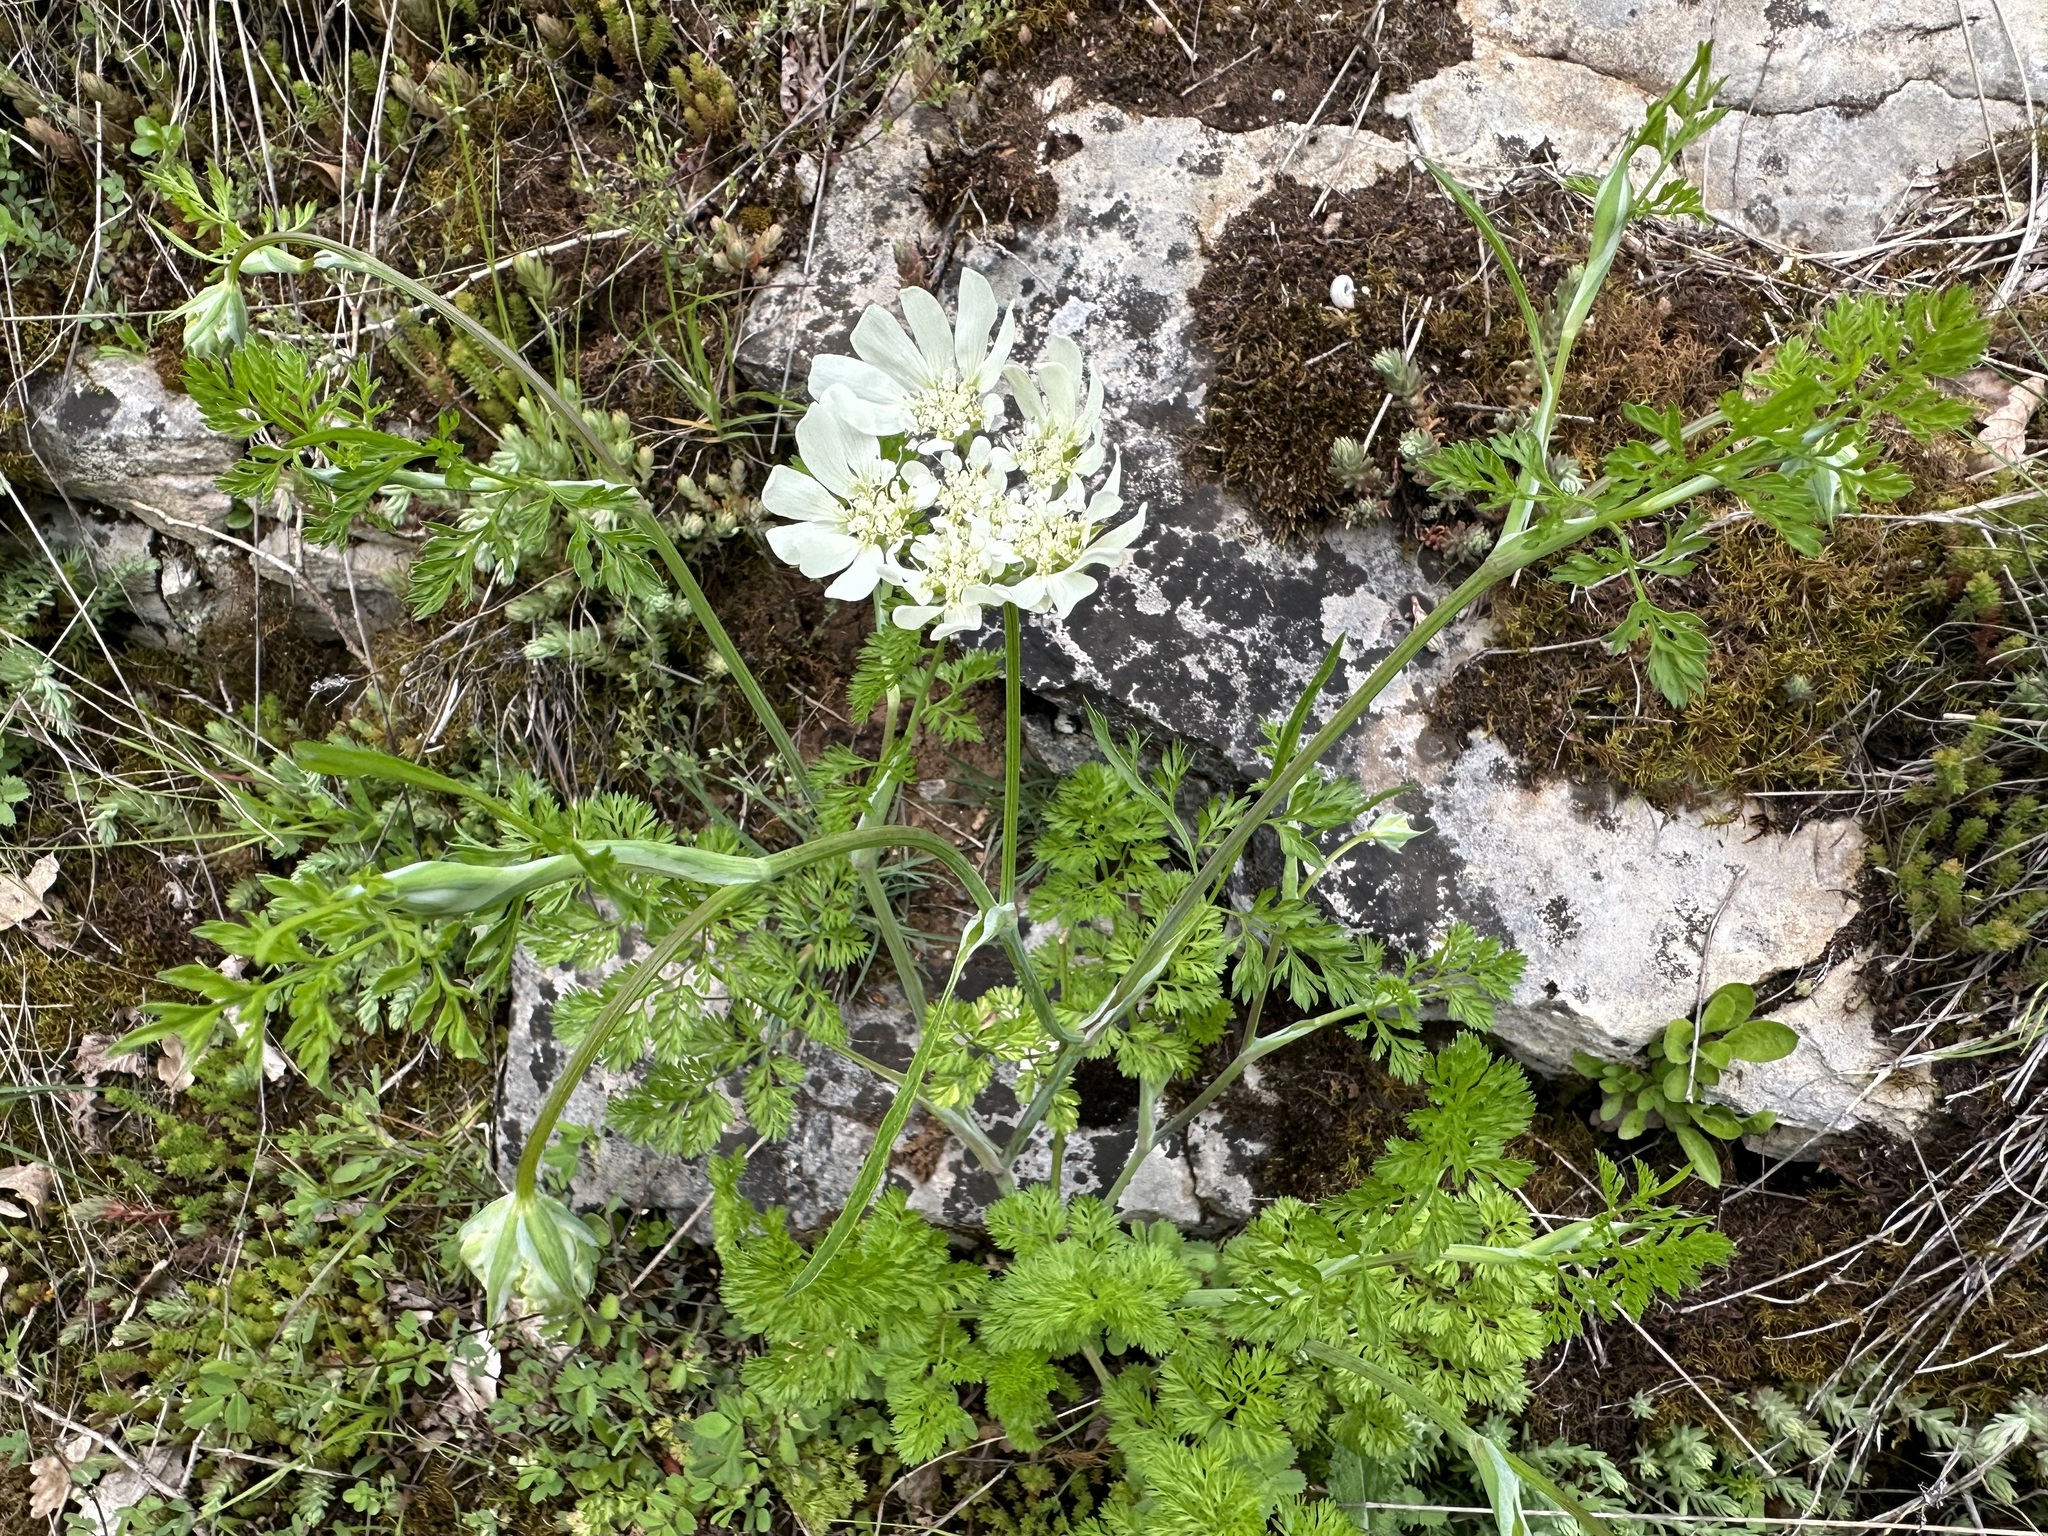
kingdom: Plantae
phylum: Tracheophyta
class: Magnoliopsida
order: Apiales
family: Apiaceae
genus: Orlaya
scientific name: Orlaya grandiflora
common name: White lace flower
